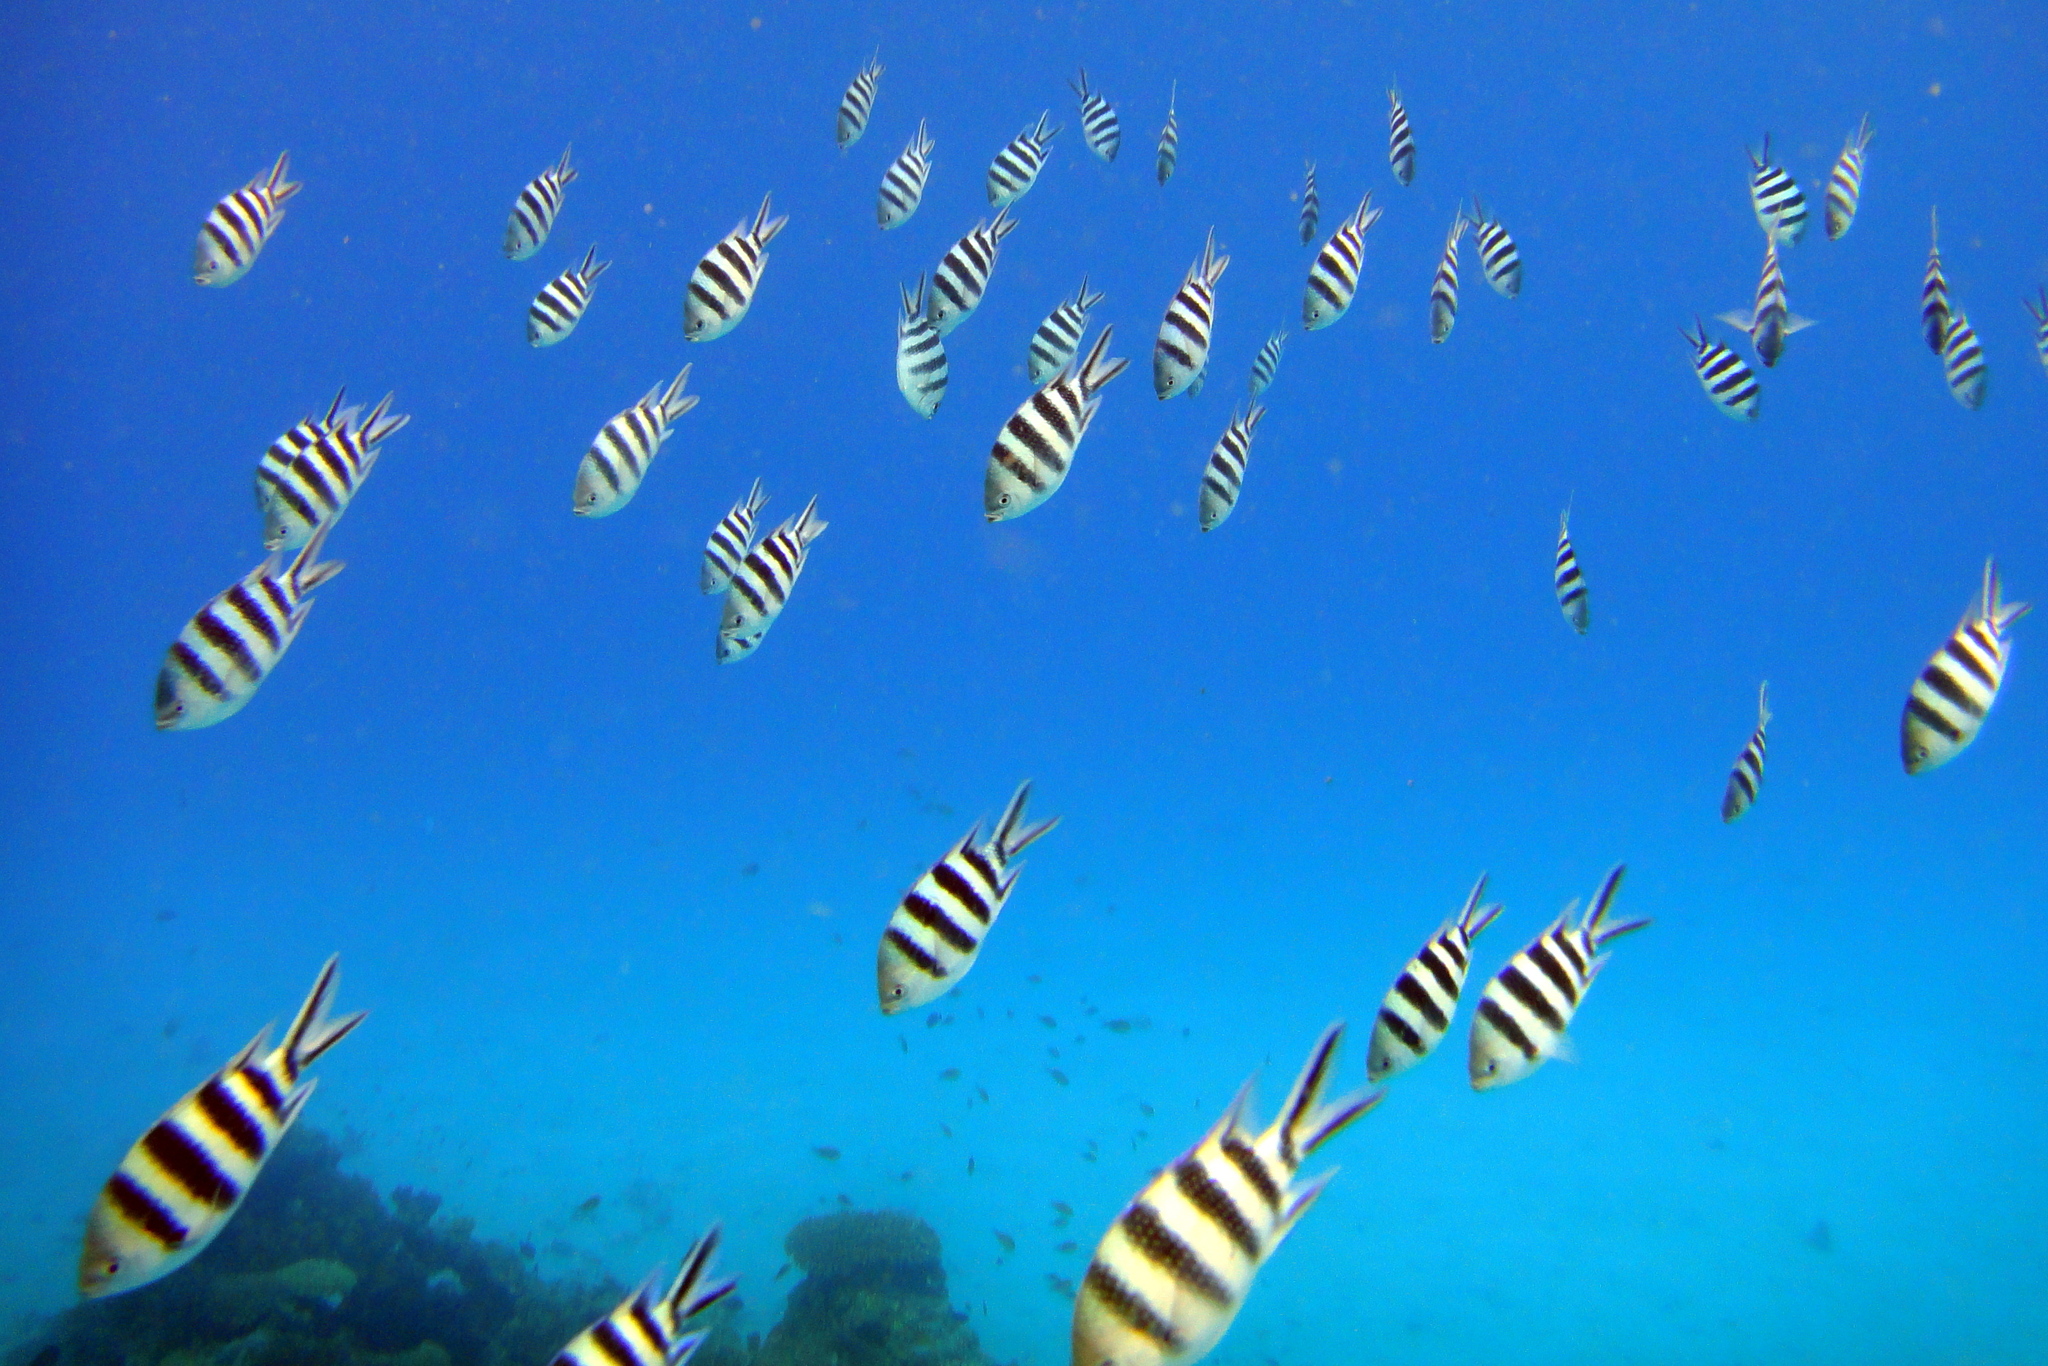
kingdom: Animalia
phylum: Chordata
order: Perciformes
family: Pomacentridae
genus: Abudefduf
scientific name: Abudefduf sexfasciatus
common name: Scissortail sergeant
